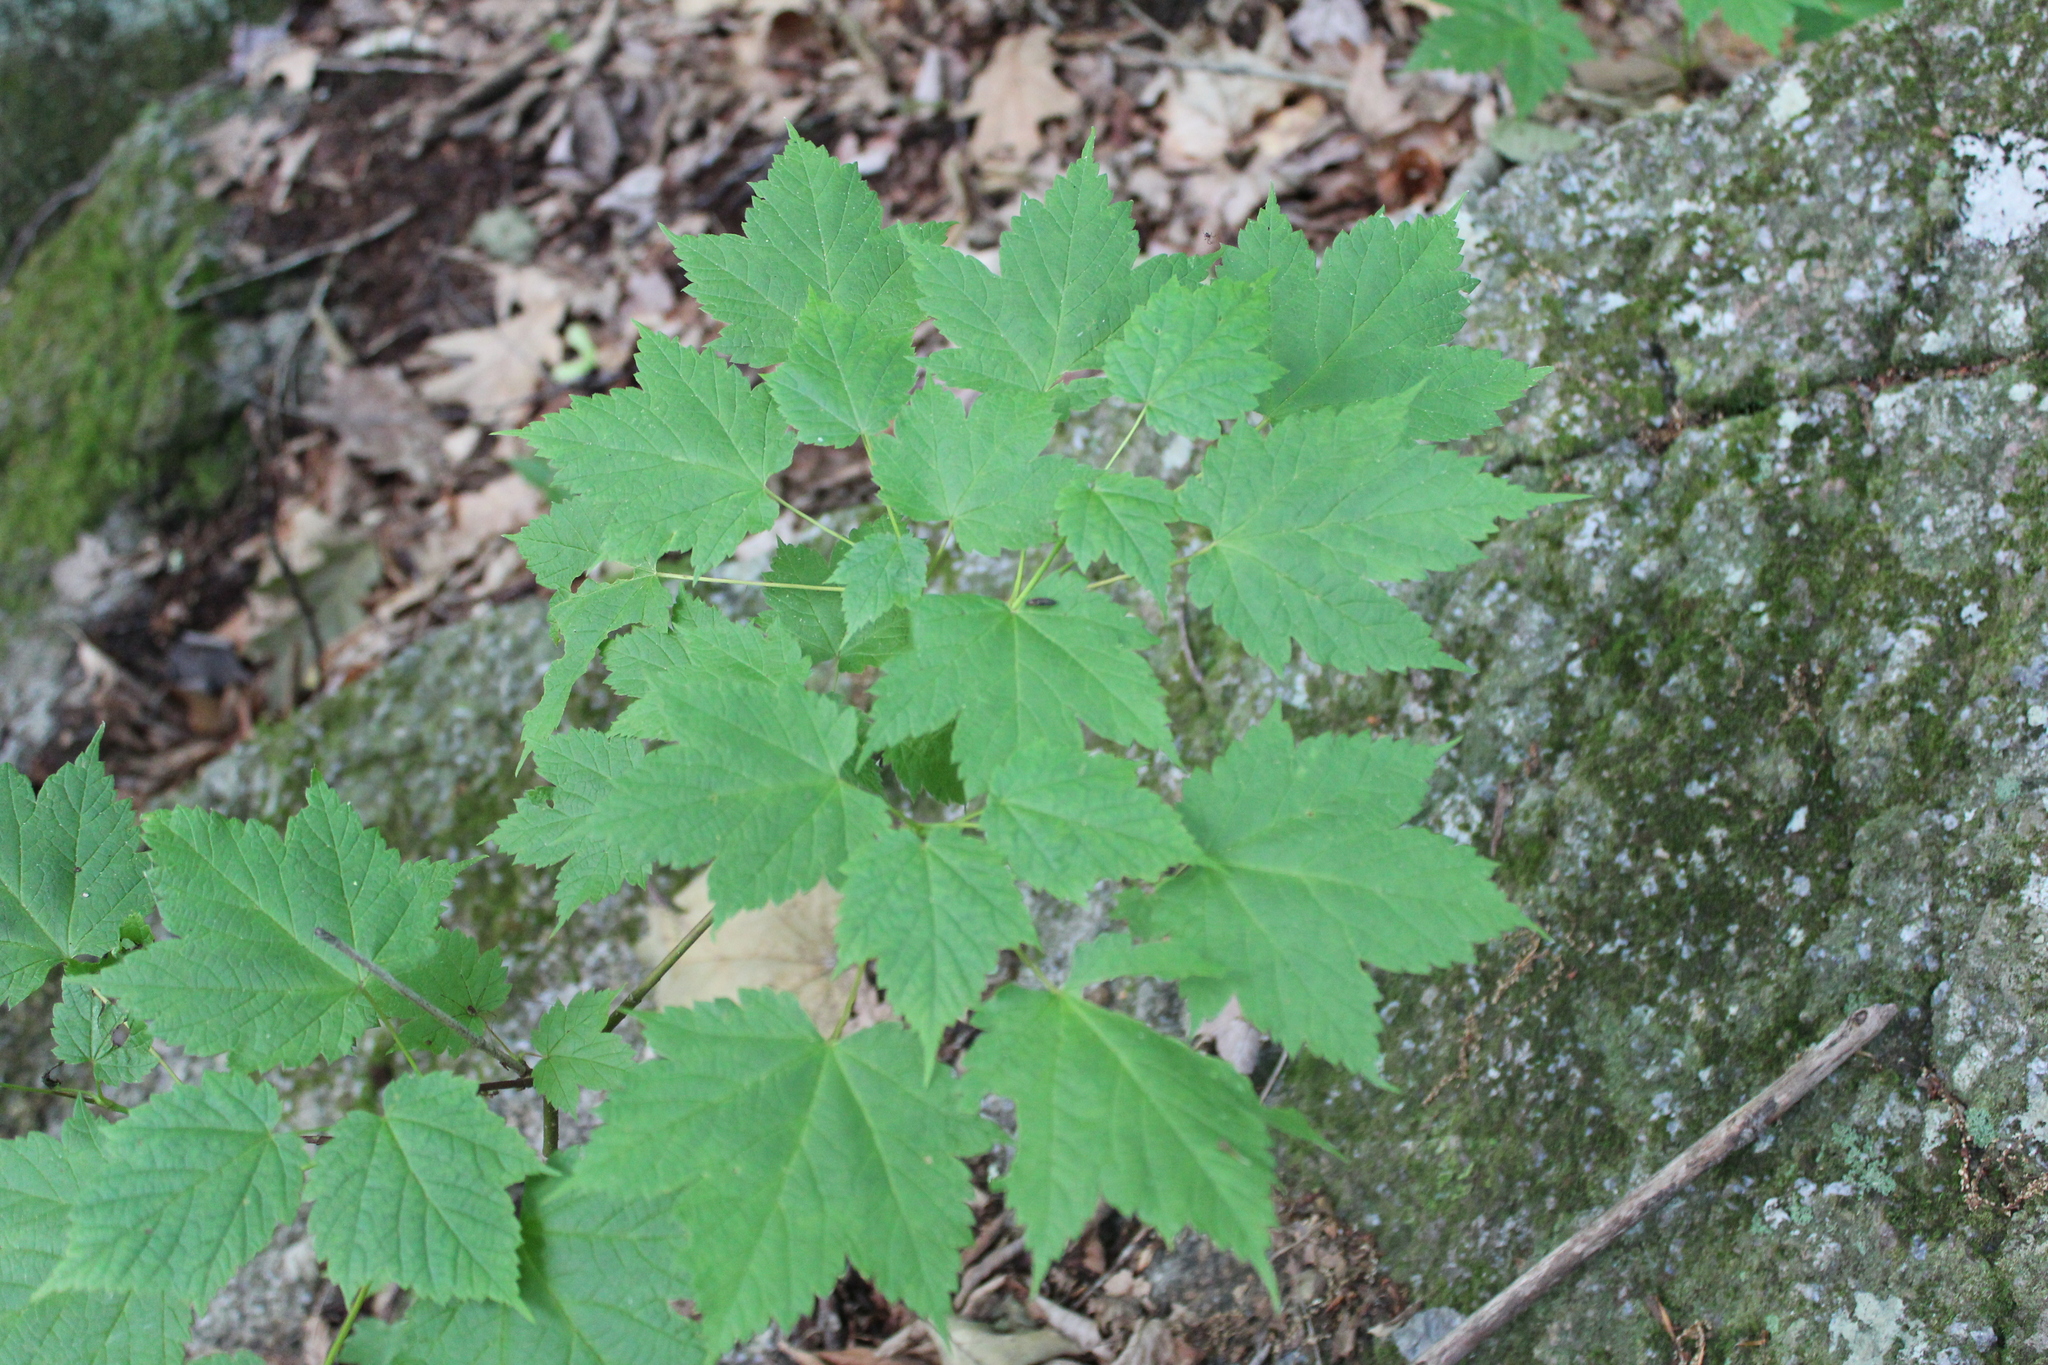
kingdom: Plantae
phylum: Tracheophyta
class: Magnoliopsida
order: Sapindales
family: Sapindaceae
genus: Acer
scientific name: Acer spicatum
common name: Mountain maple
